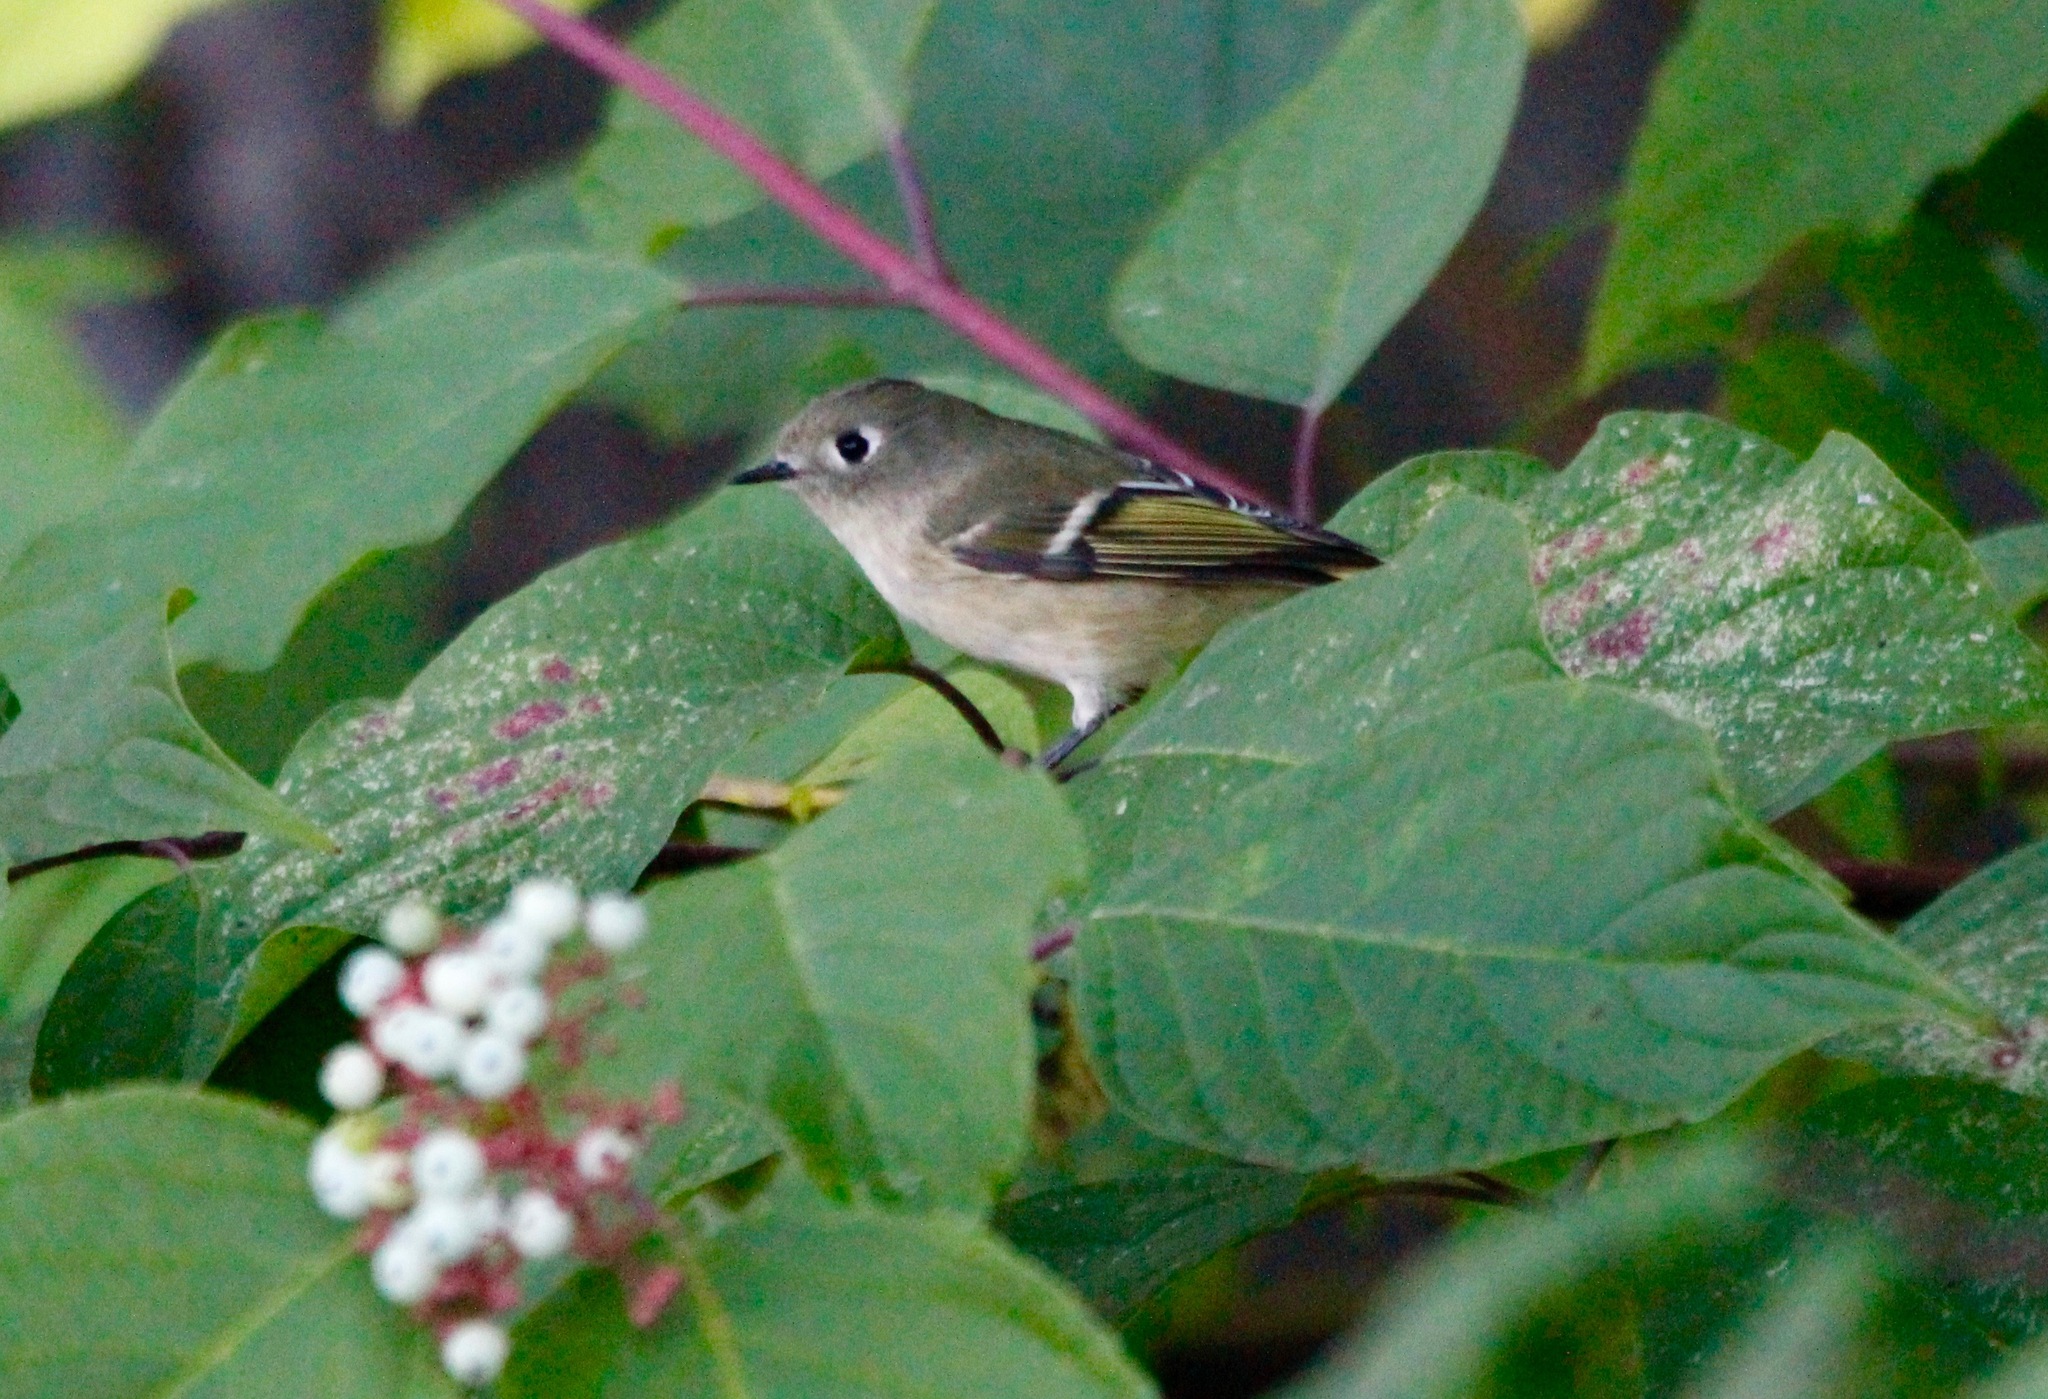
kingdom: Animalia
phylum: Chordata
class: Aves
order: Passeriformes
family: Regulidae
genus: Regulus
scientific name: Regulus calendula
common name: Ruby-crowned kinglet
